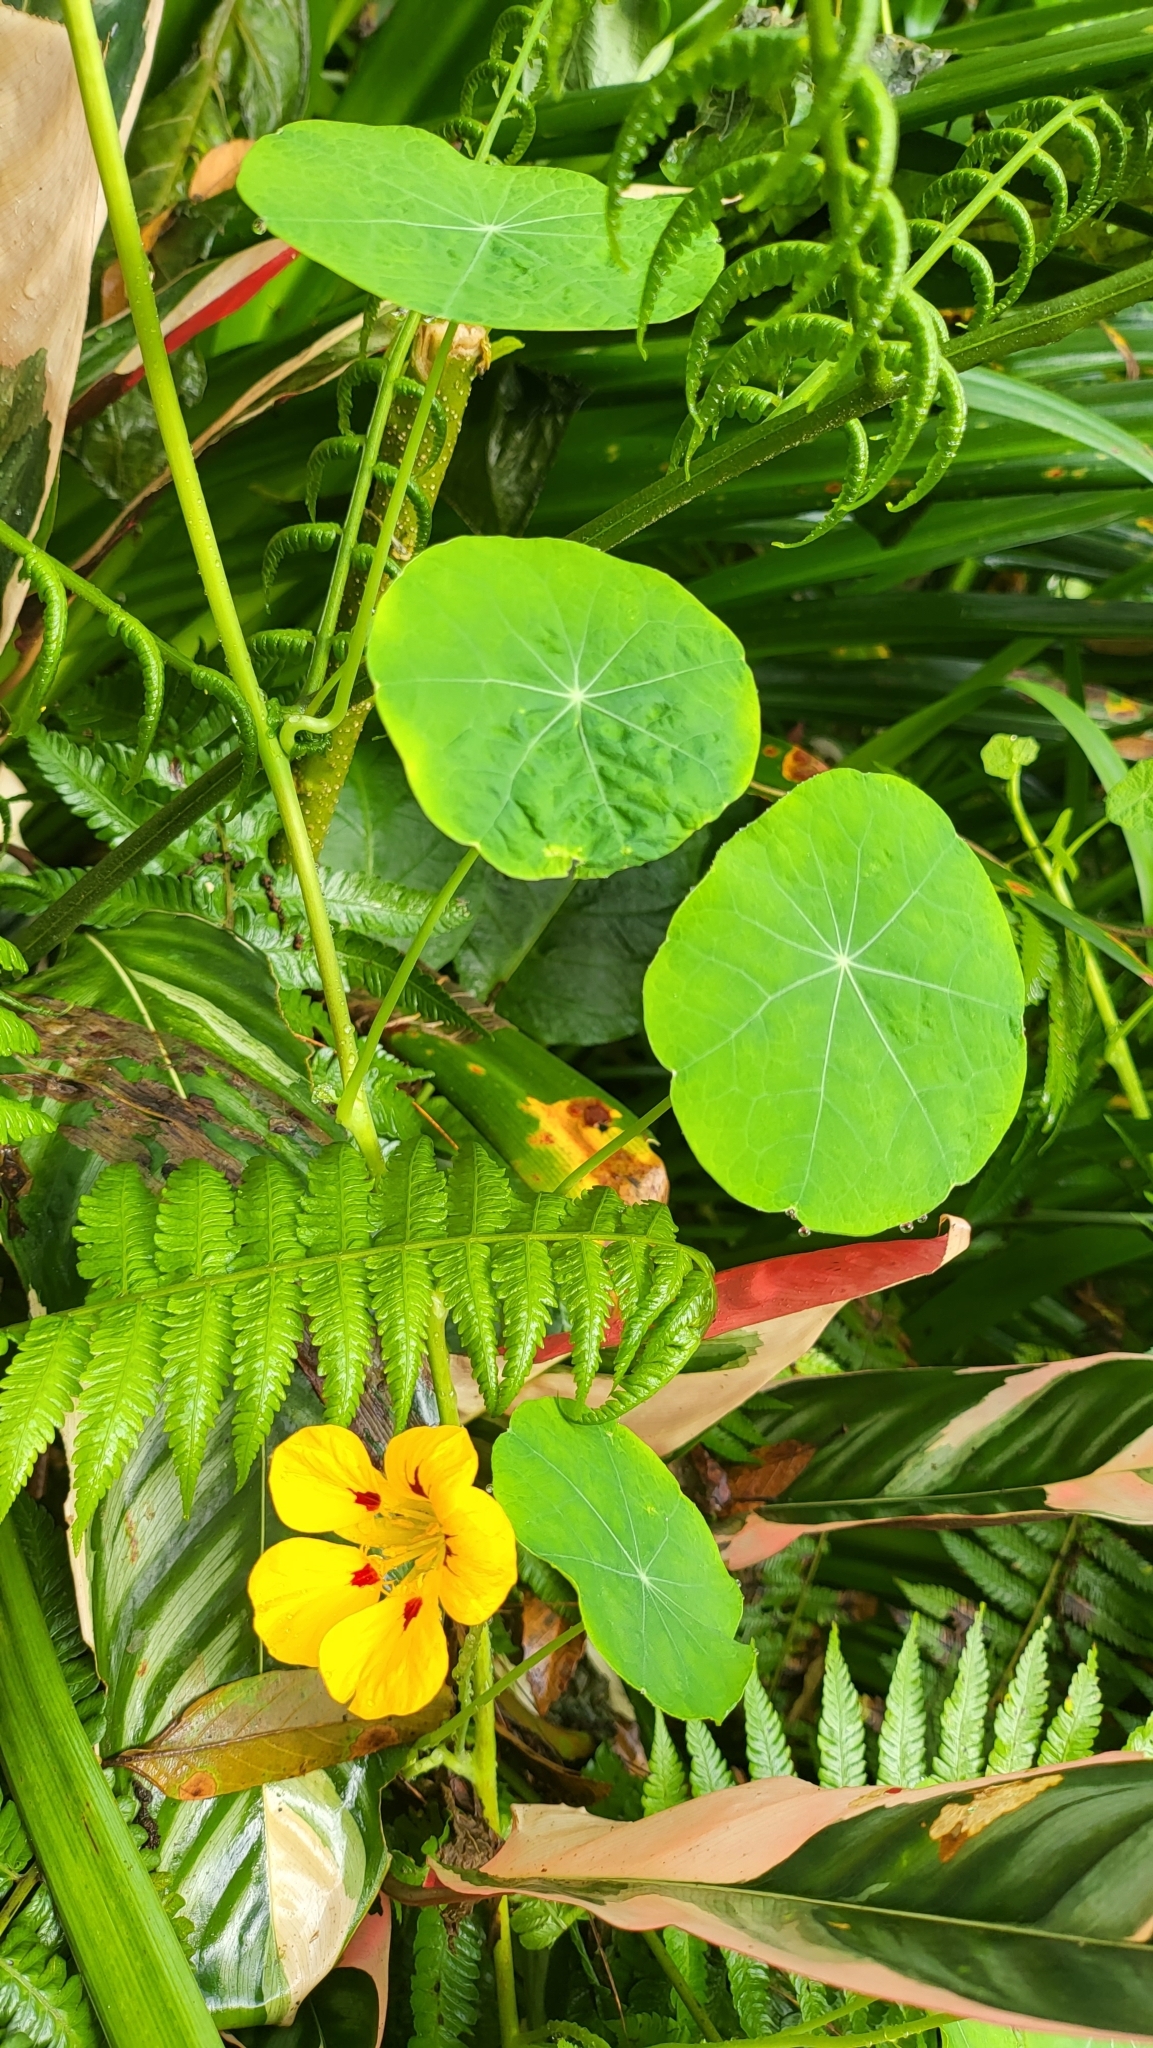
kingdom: Plantae
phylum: Tracheophyta
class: Magnoliopsida
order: Brassicales
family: Tropaeolaceae
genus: Tropaeolum
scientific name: Tropaeolum majus
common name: Nasturtium
